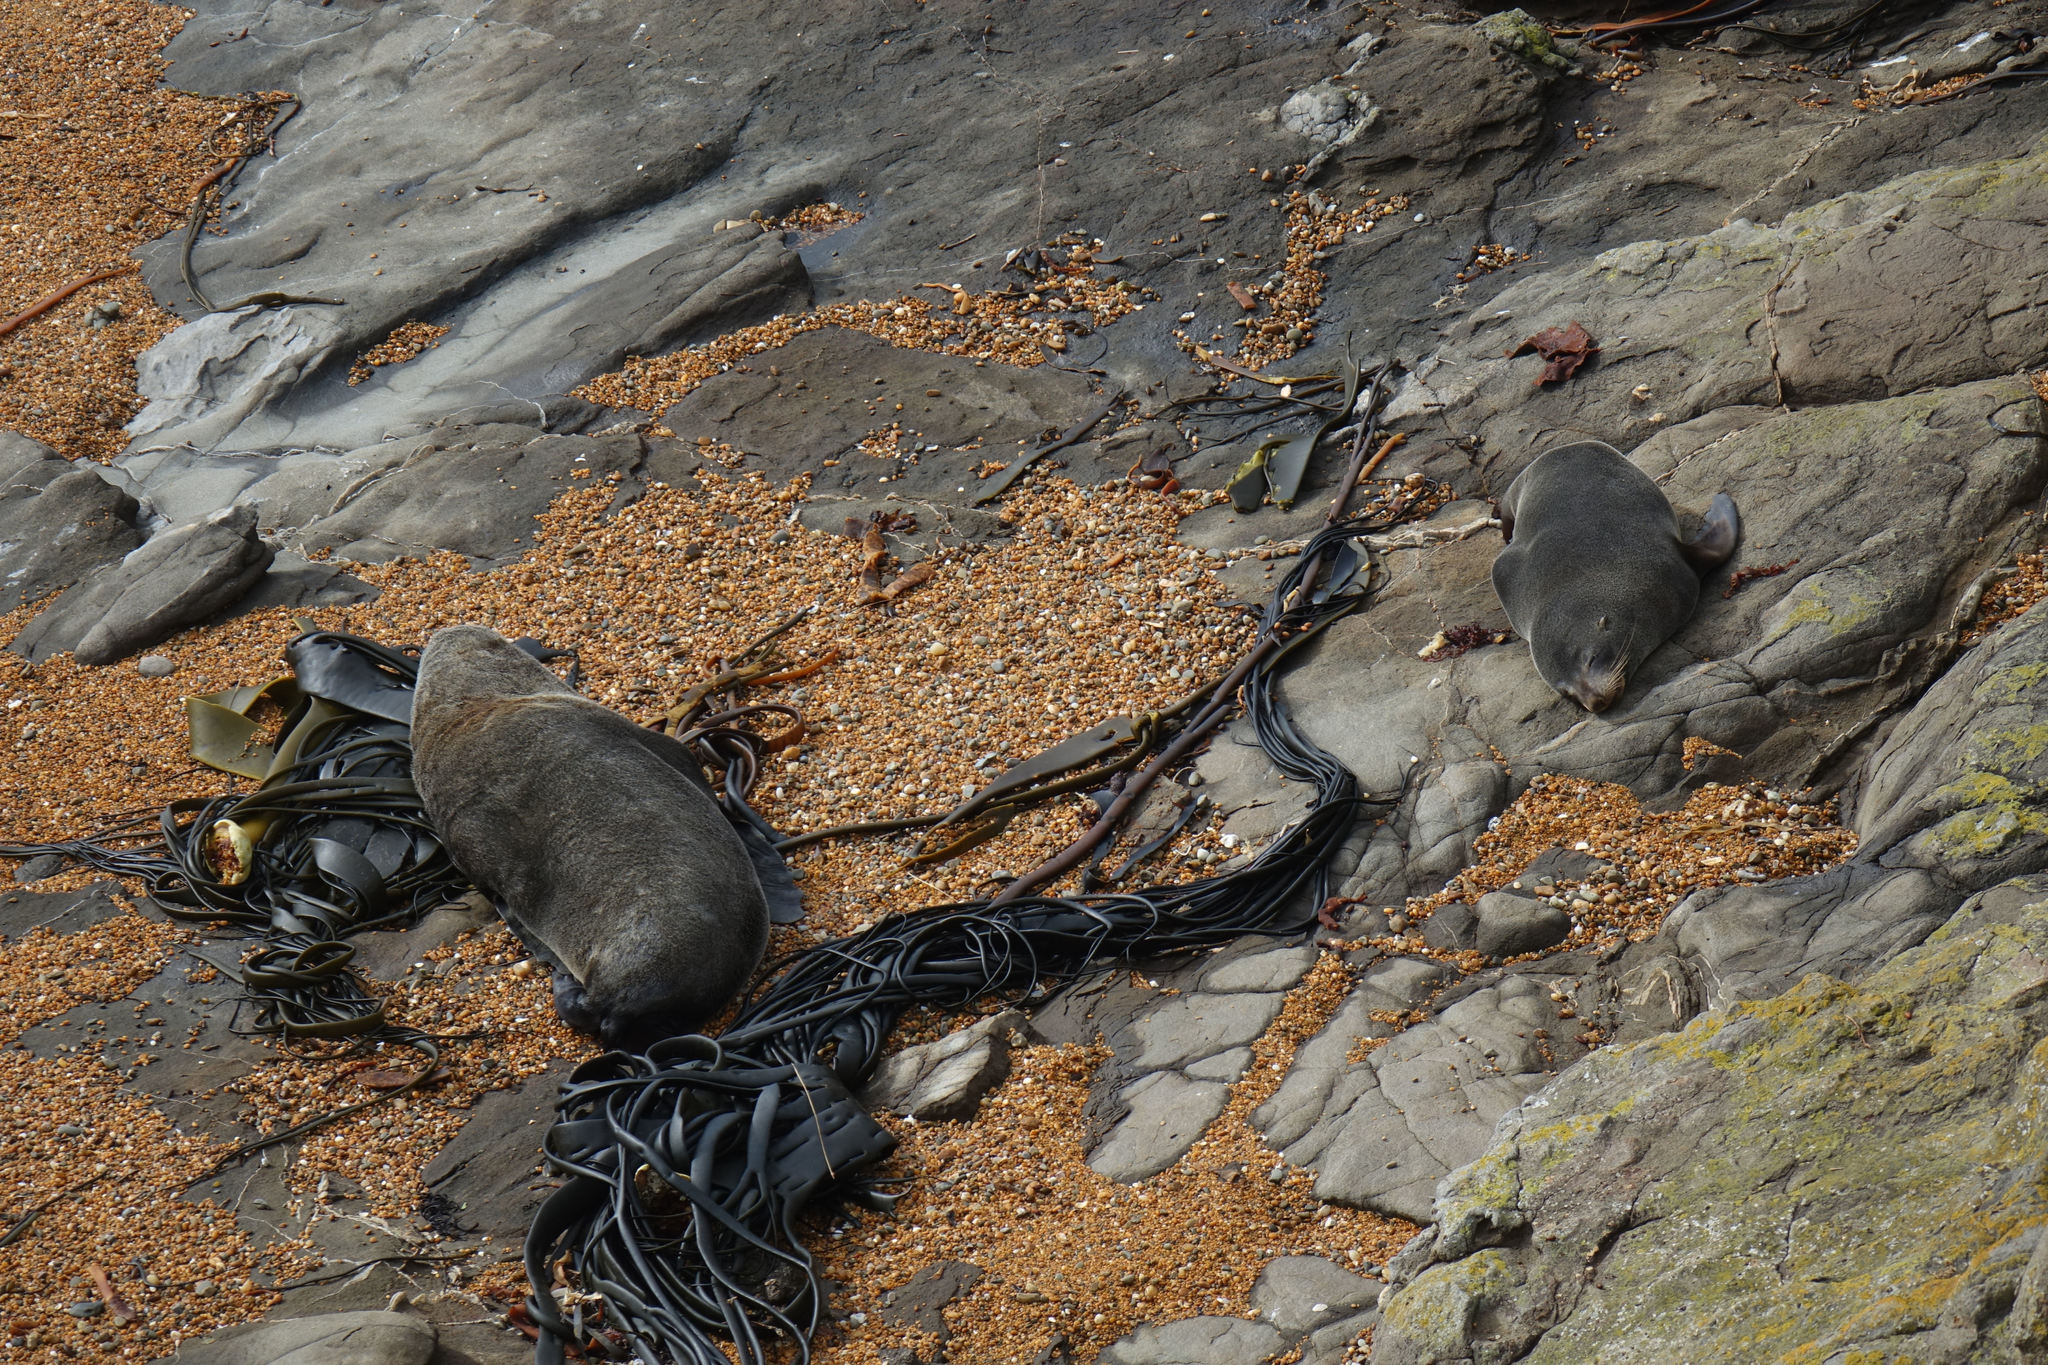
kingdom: Animalia
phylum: Chordata
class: Mammalia
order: Carnivora
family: Otariidae
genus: Arctocephalus
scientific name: Arctocephalus forsteri
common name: New zealand fur seal
